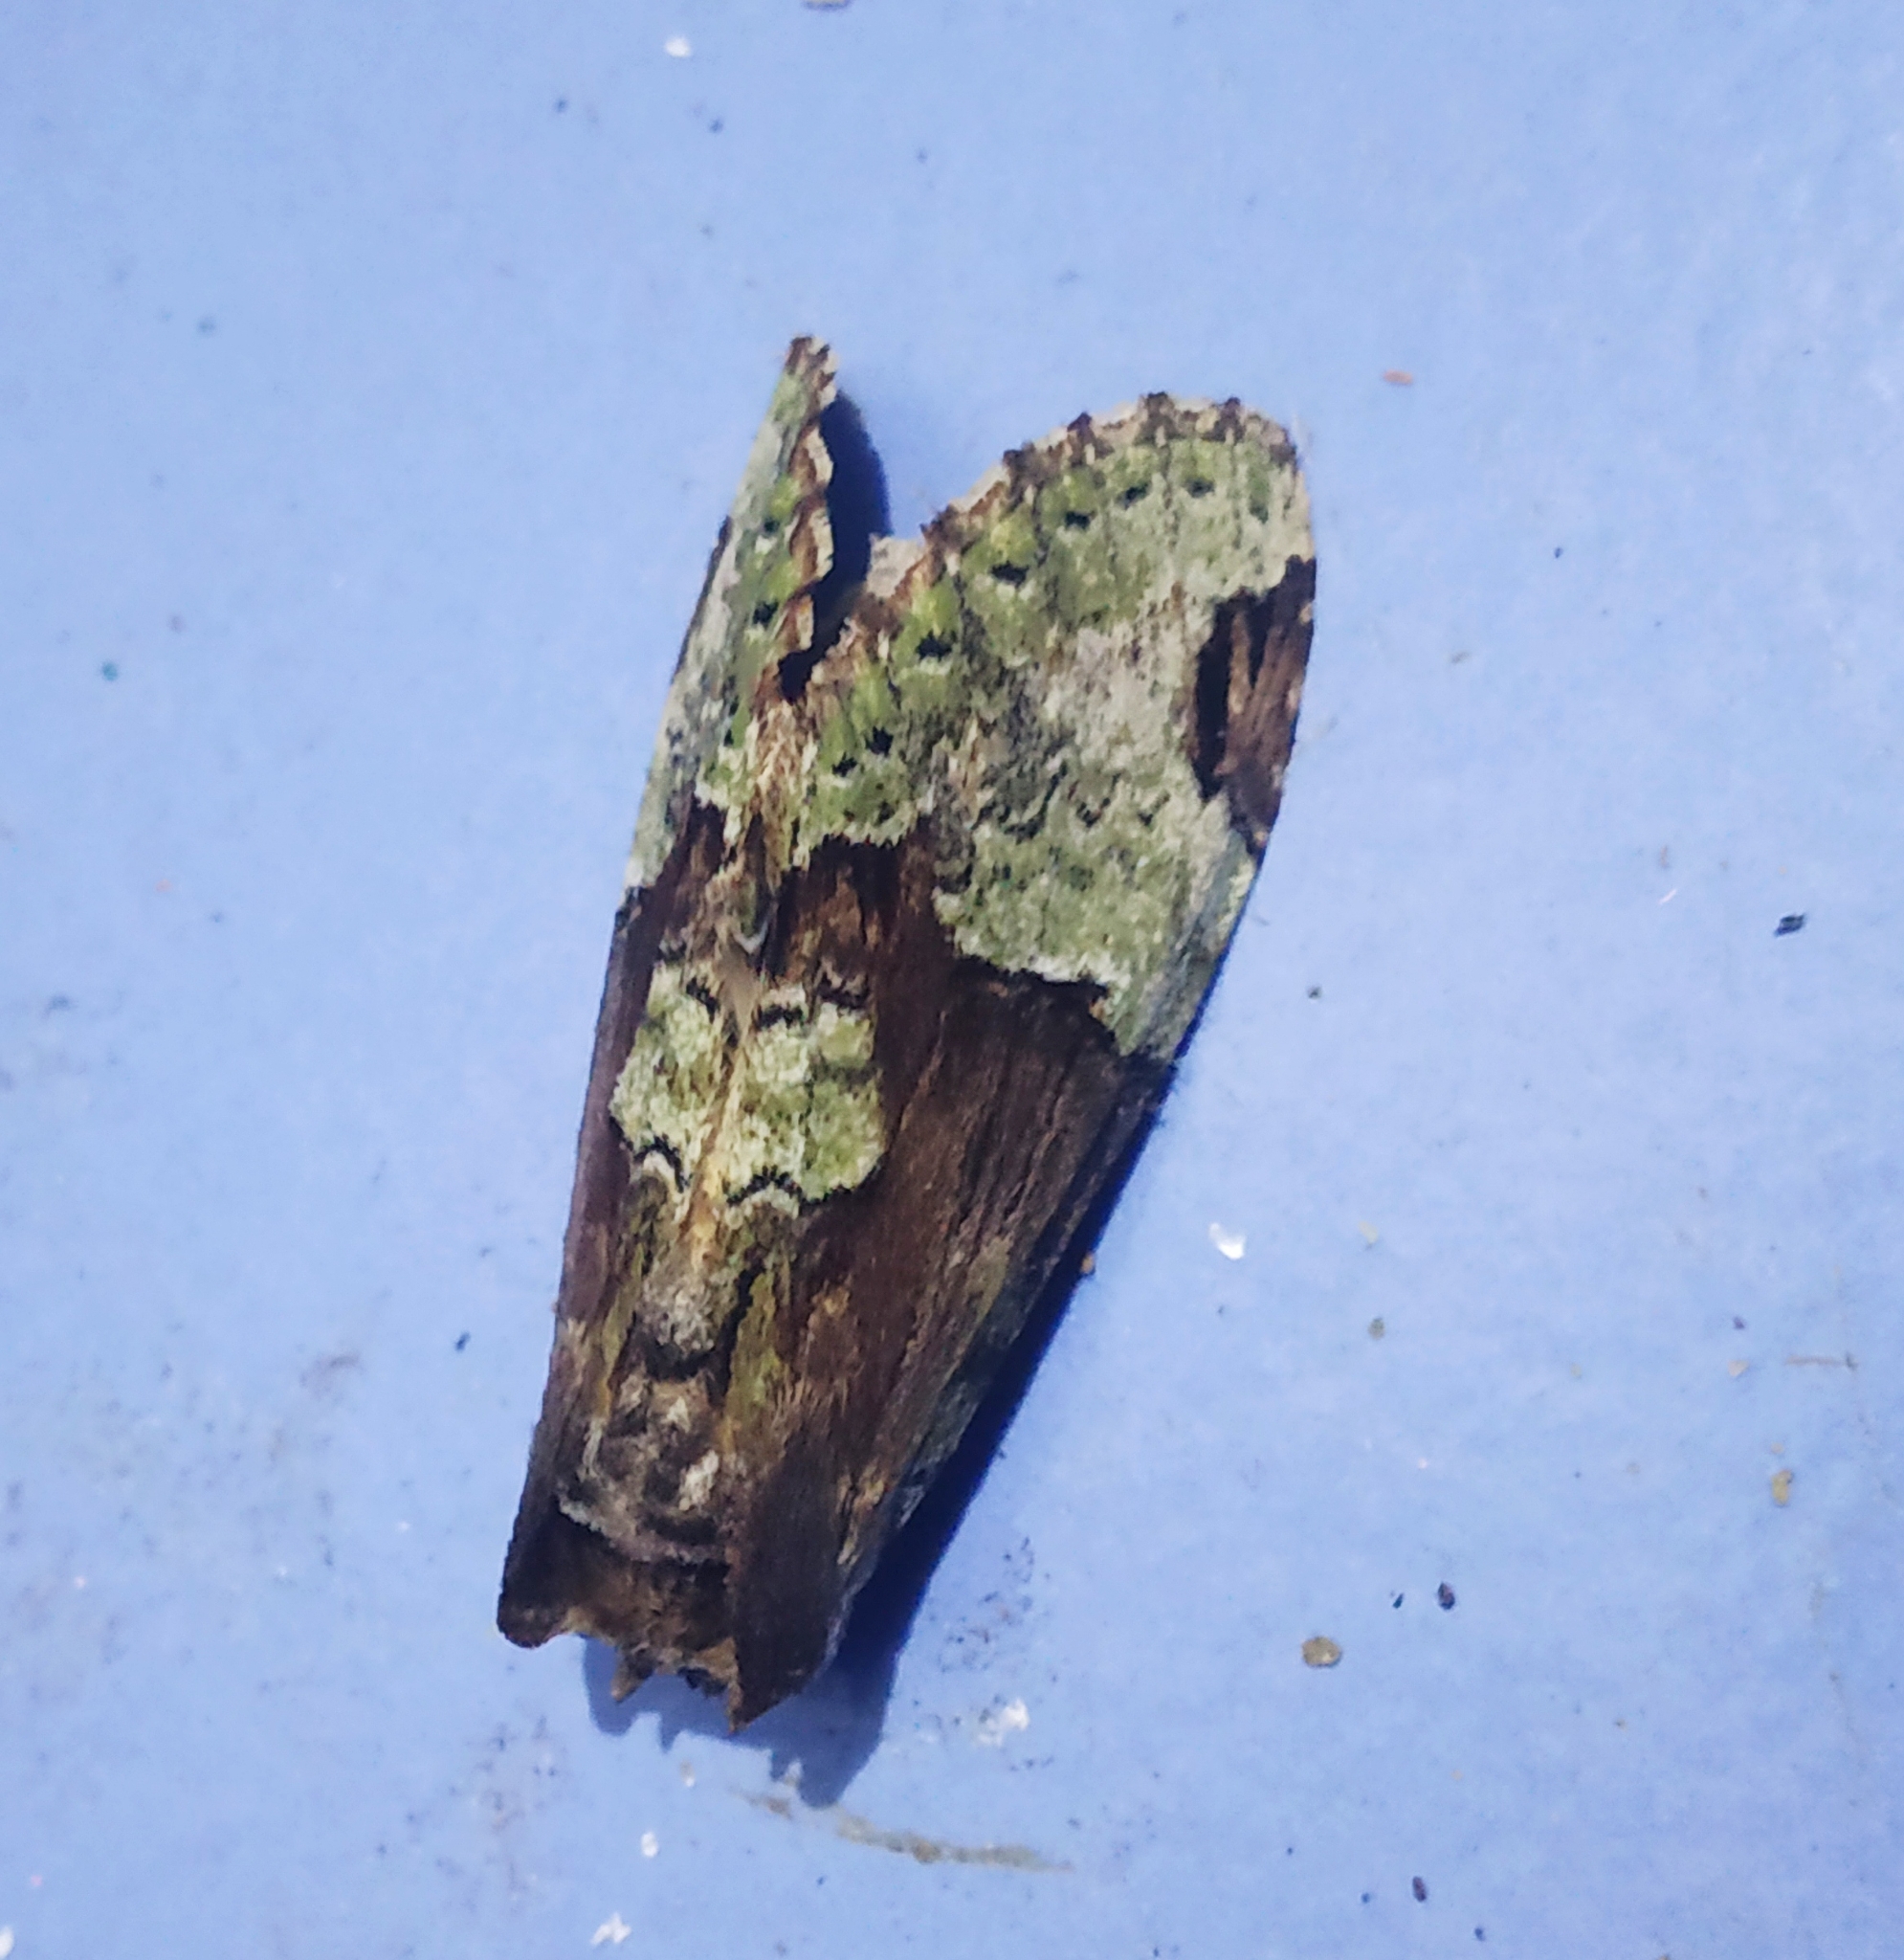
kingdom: Animalia
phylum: Arthropoda
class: Insecta
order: Lepidoptera
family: Notodontidae
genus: Chadisra
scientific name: Chadisra bipars
